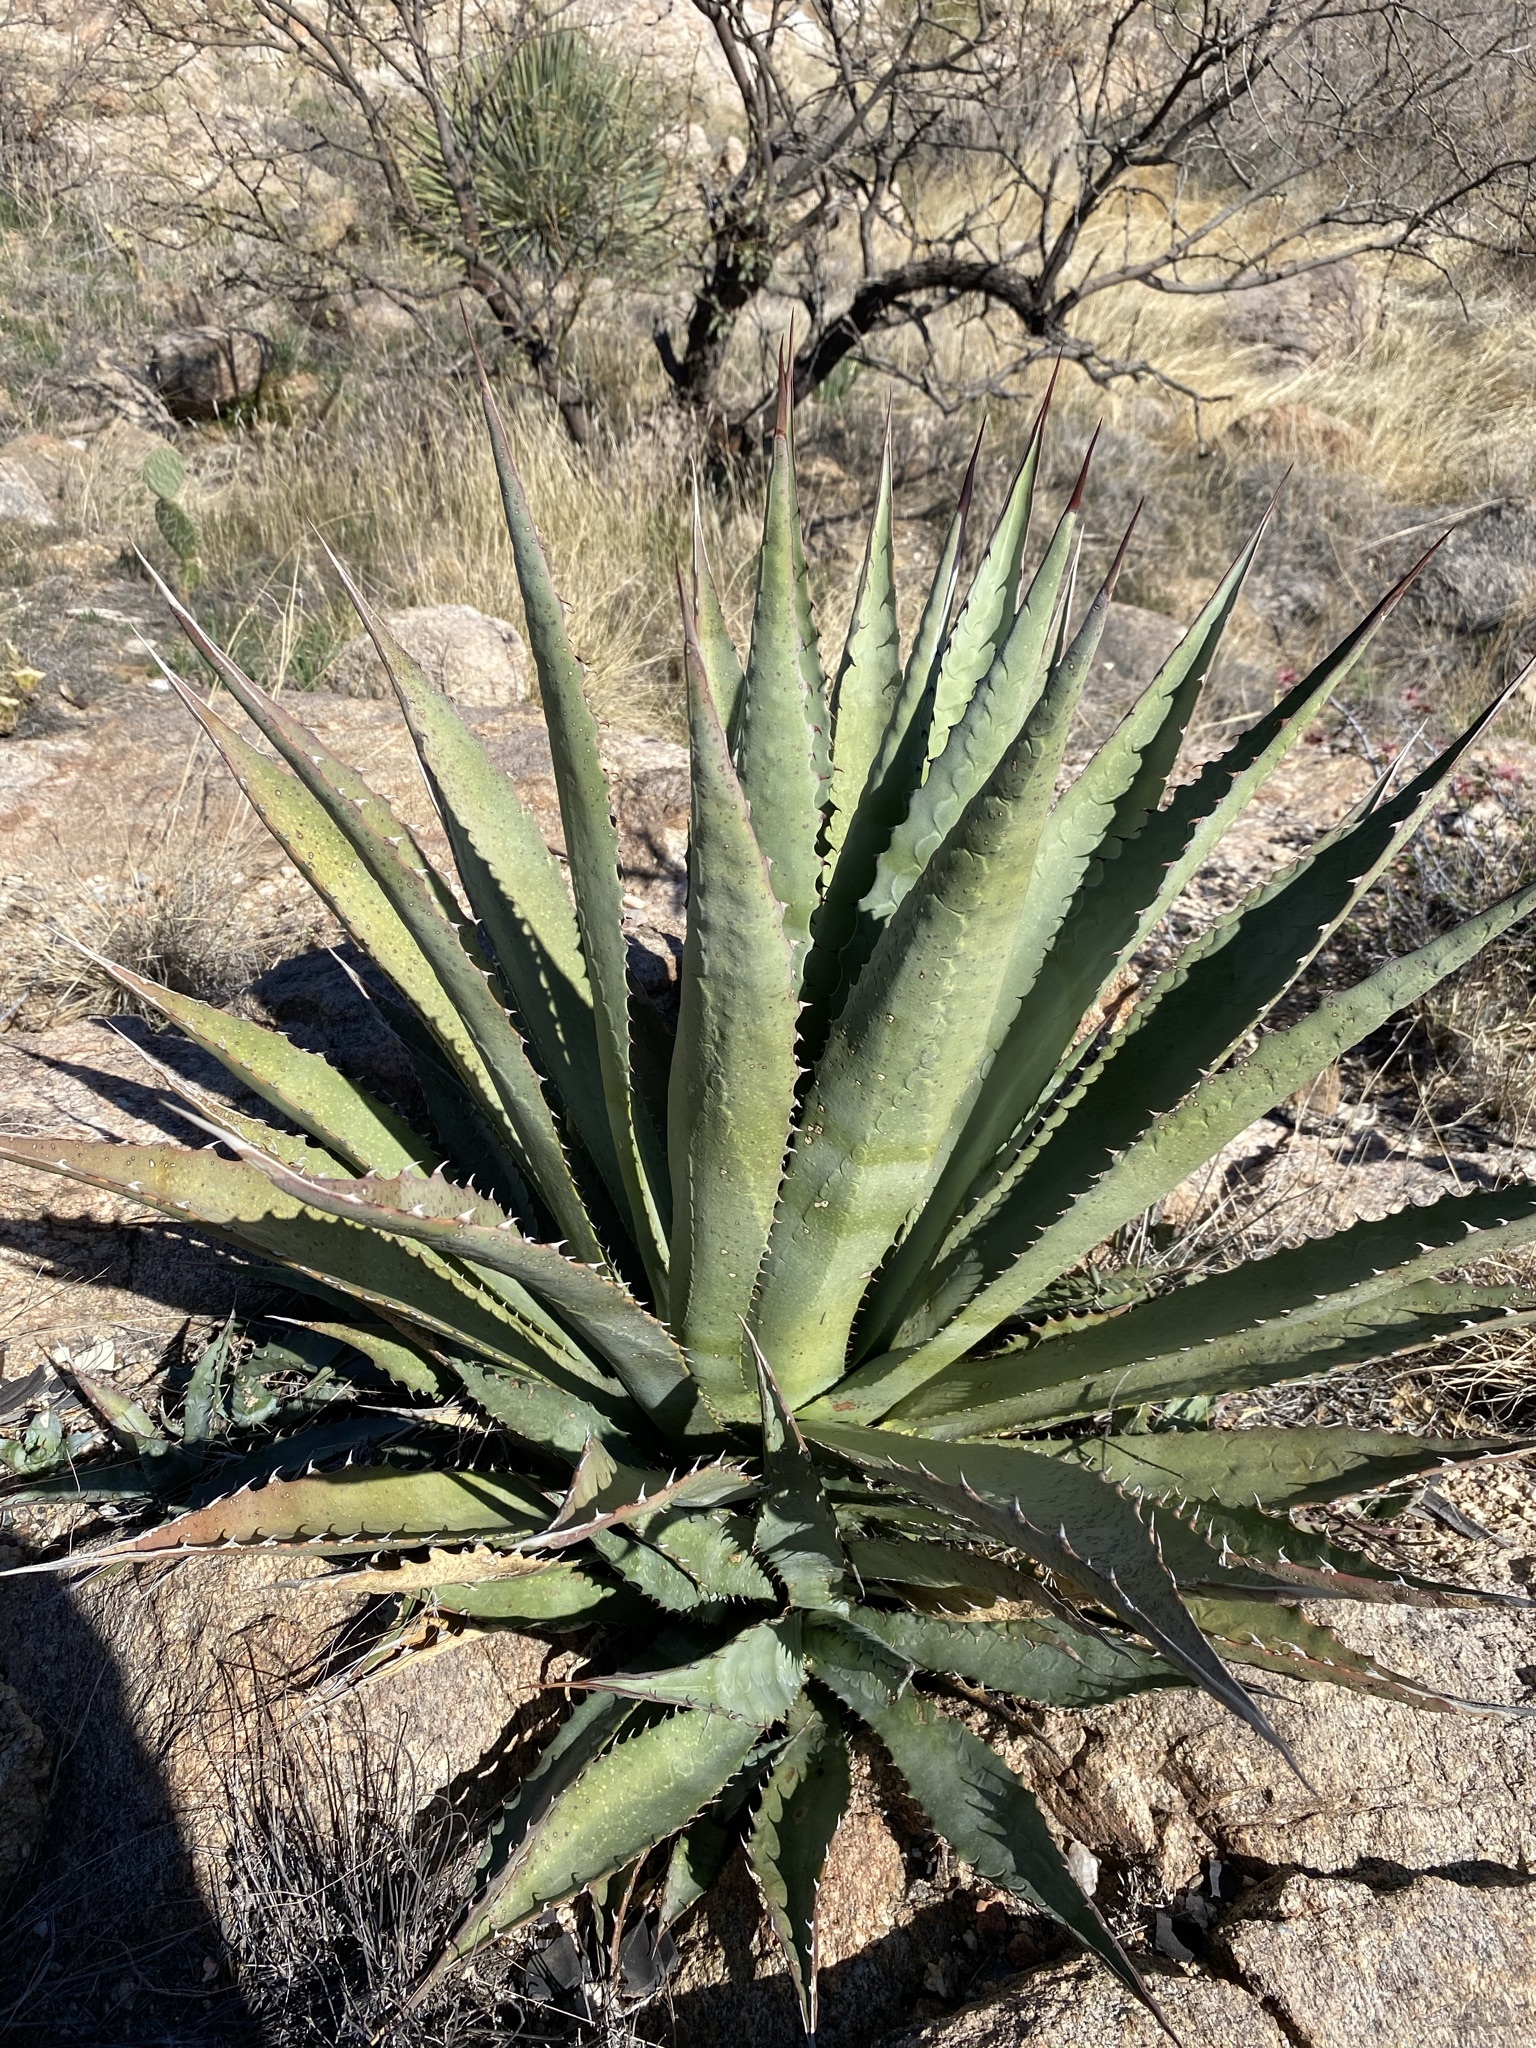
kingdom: Plantae
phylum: Tracheophyta
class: Liliopsida
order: Asparagales
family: Asparagaceae
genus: Agave
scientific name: Agave palmeri
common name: Palmer agave
